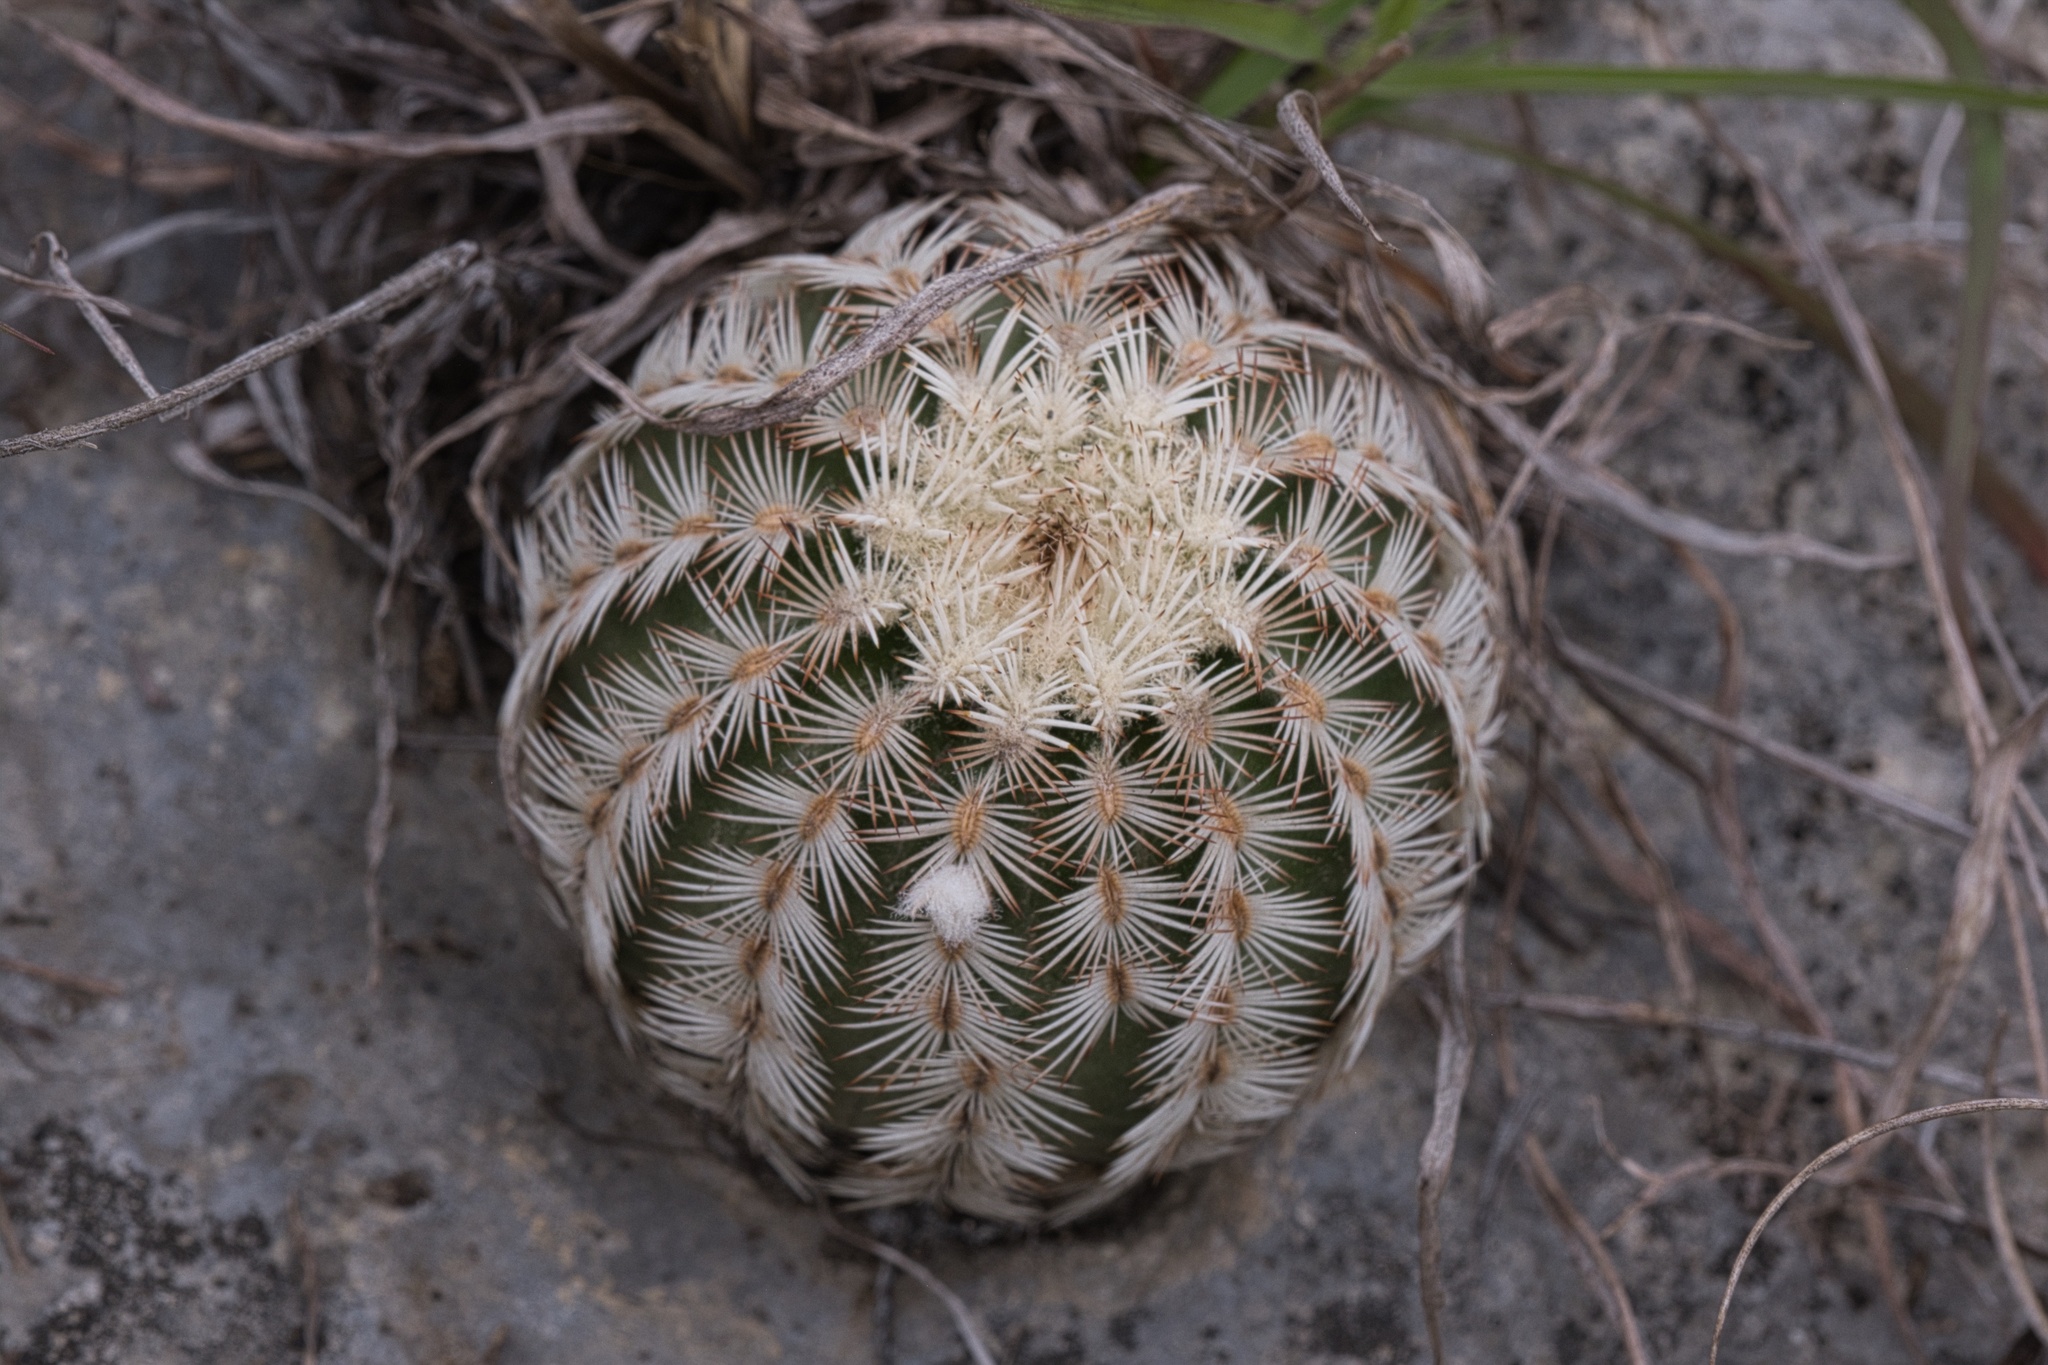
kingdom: Plantae
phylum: Tracheophyta
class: Magnoliopsida
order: Caryophyllales
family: Cactaceae
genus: Echinocereus
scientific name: Echinocereus reichenbachii
